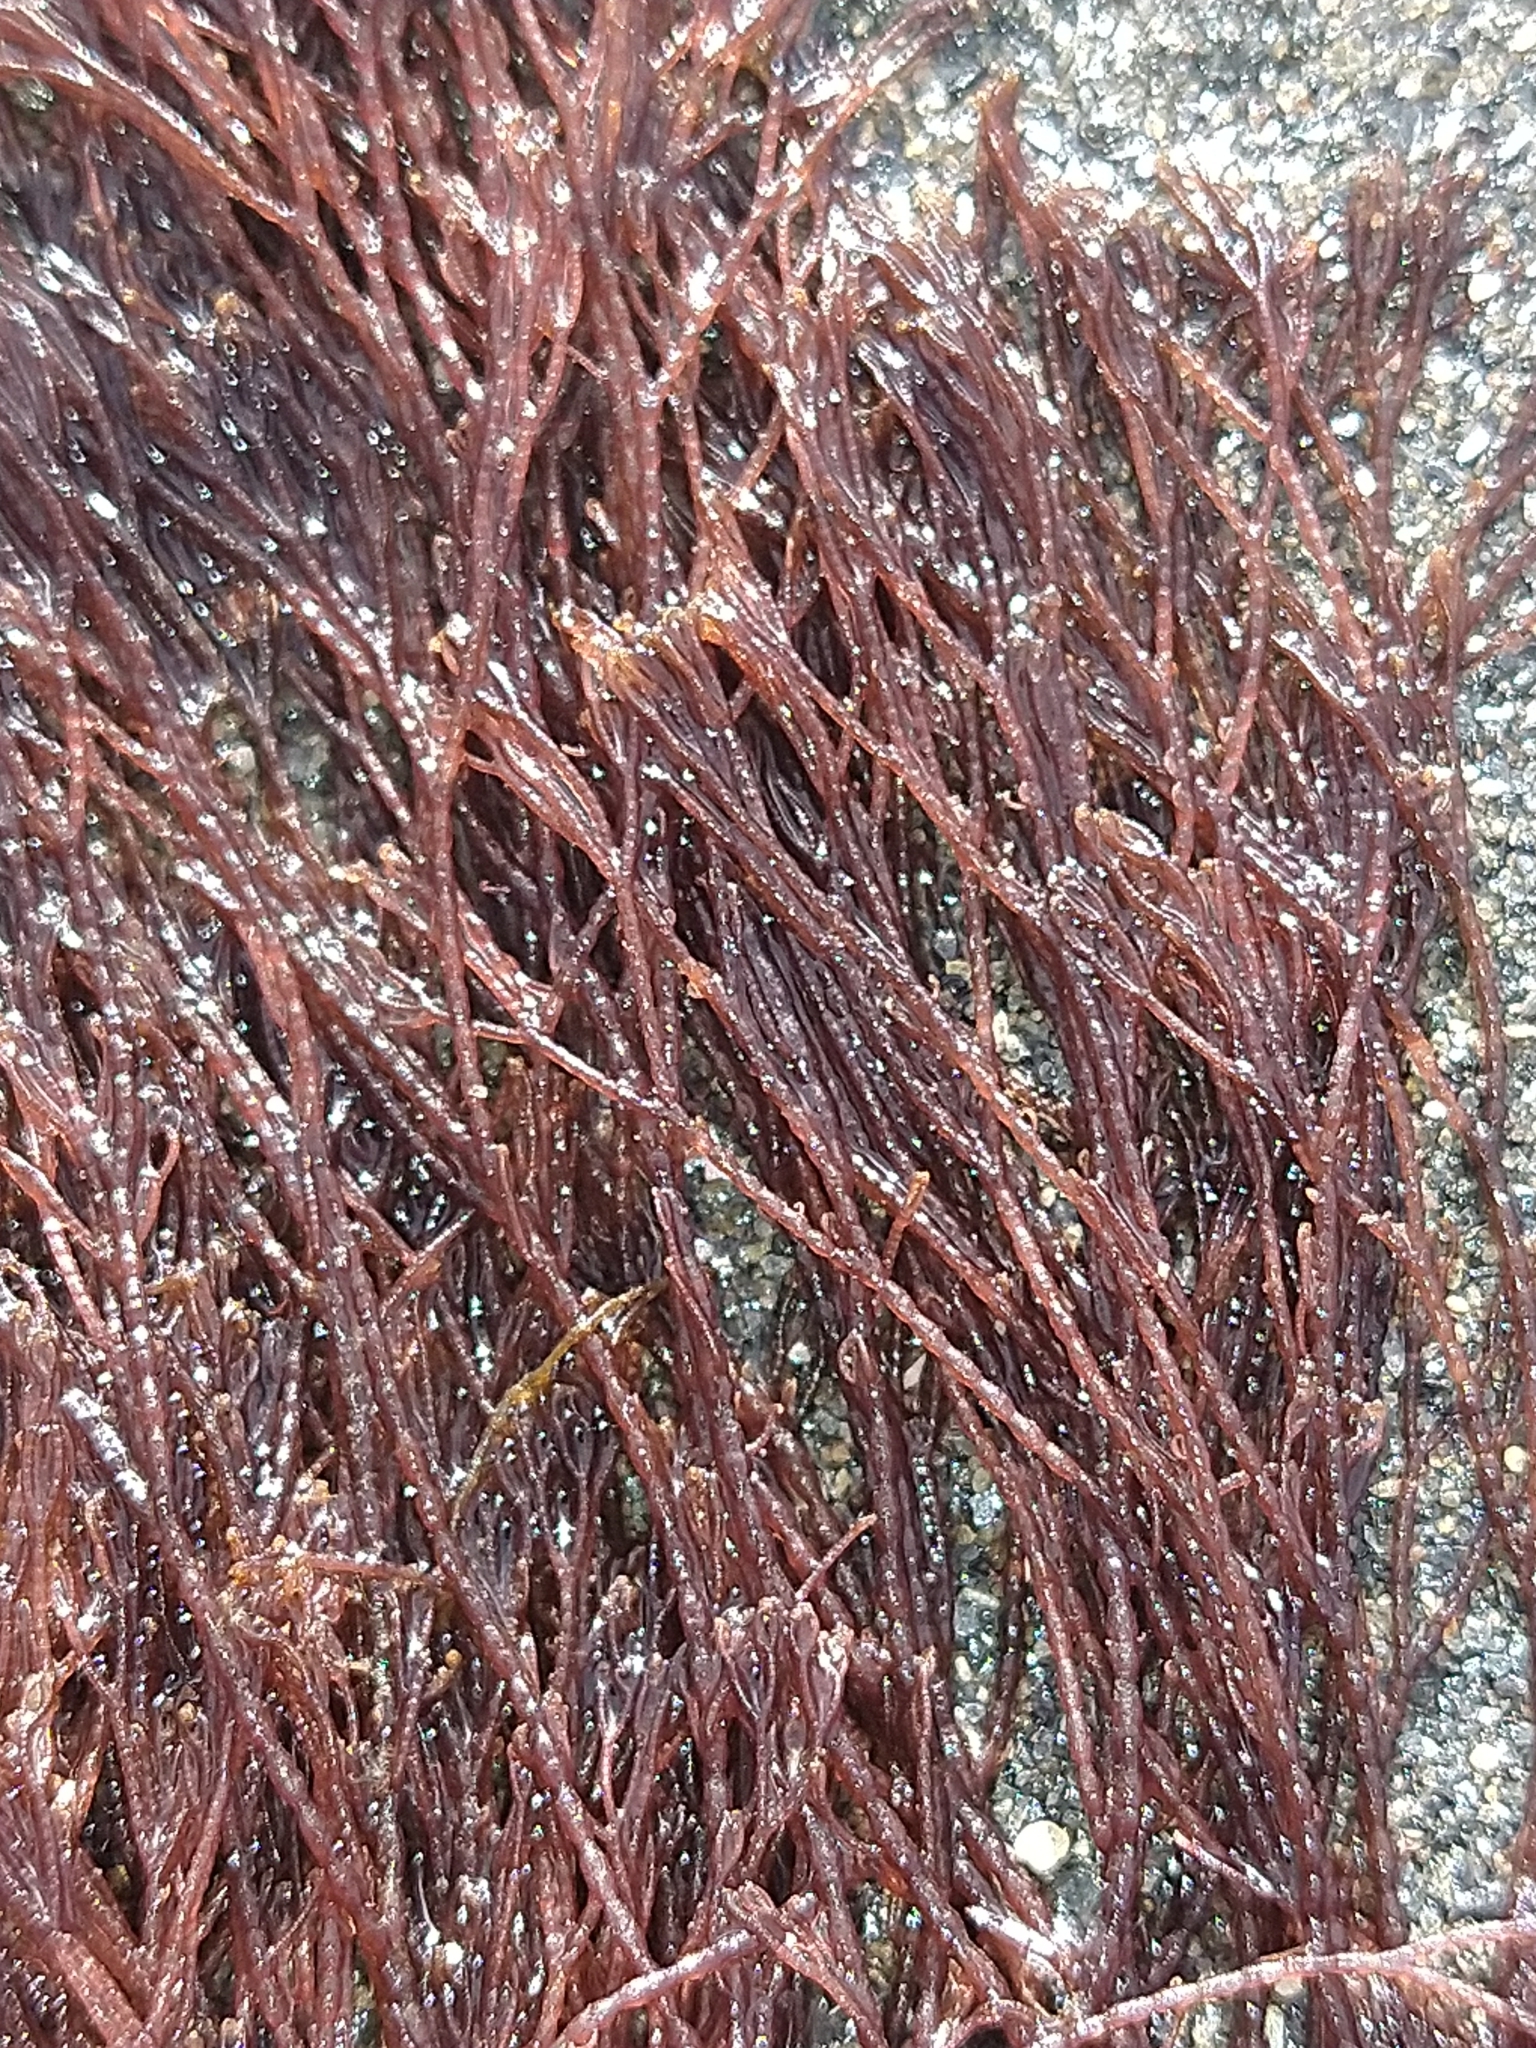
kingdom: Plantae
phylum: Rhodophyta
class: Florideophyceae
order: Ceramiales
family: Ceramiaceae
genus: Ceramium
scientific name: Ceramium virgatum
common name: Red hornweed
